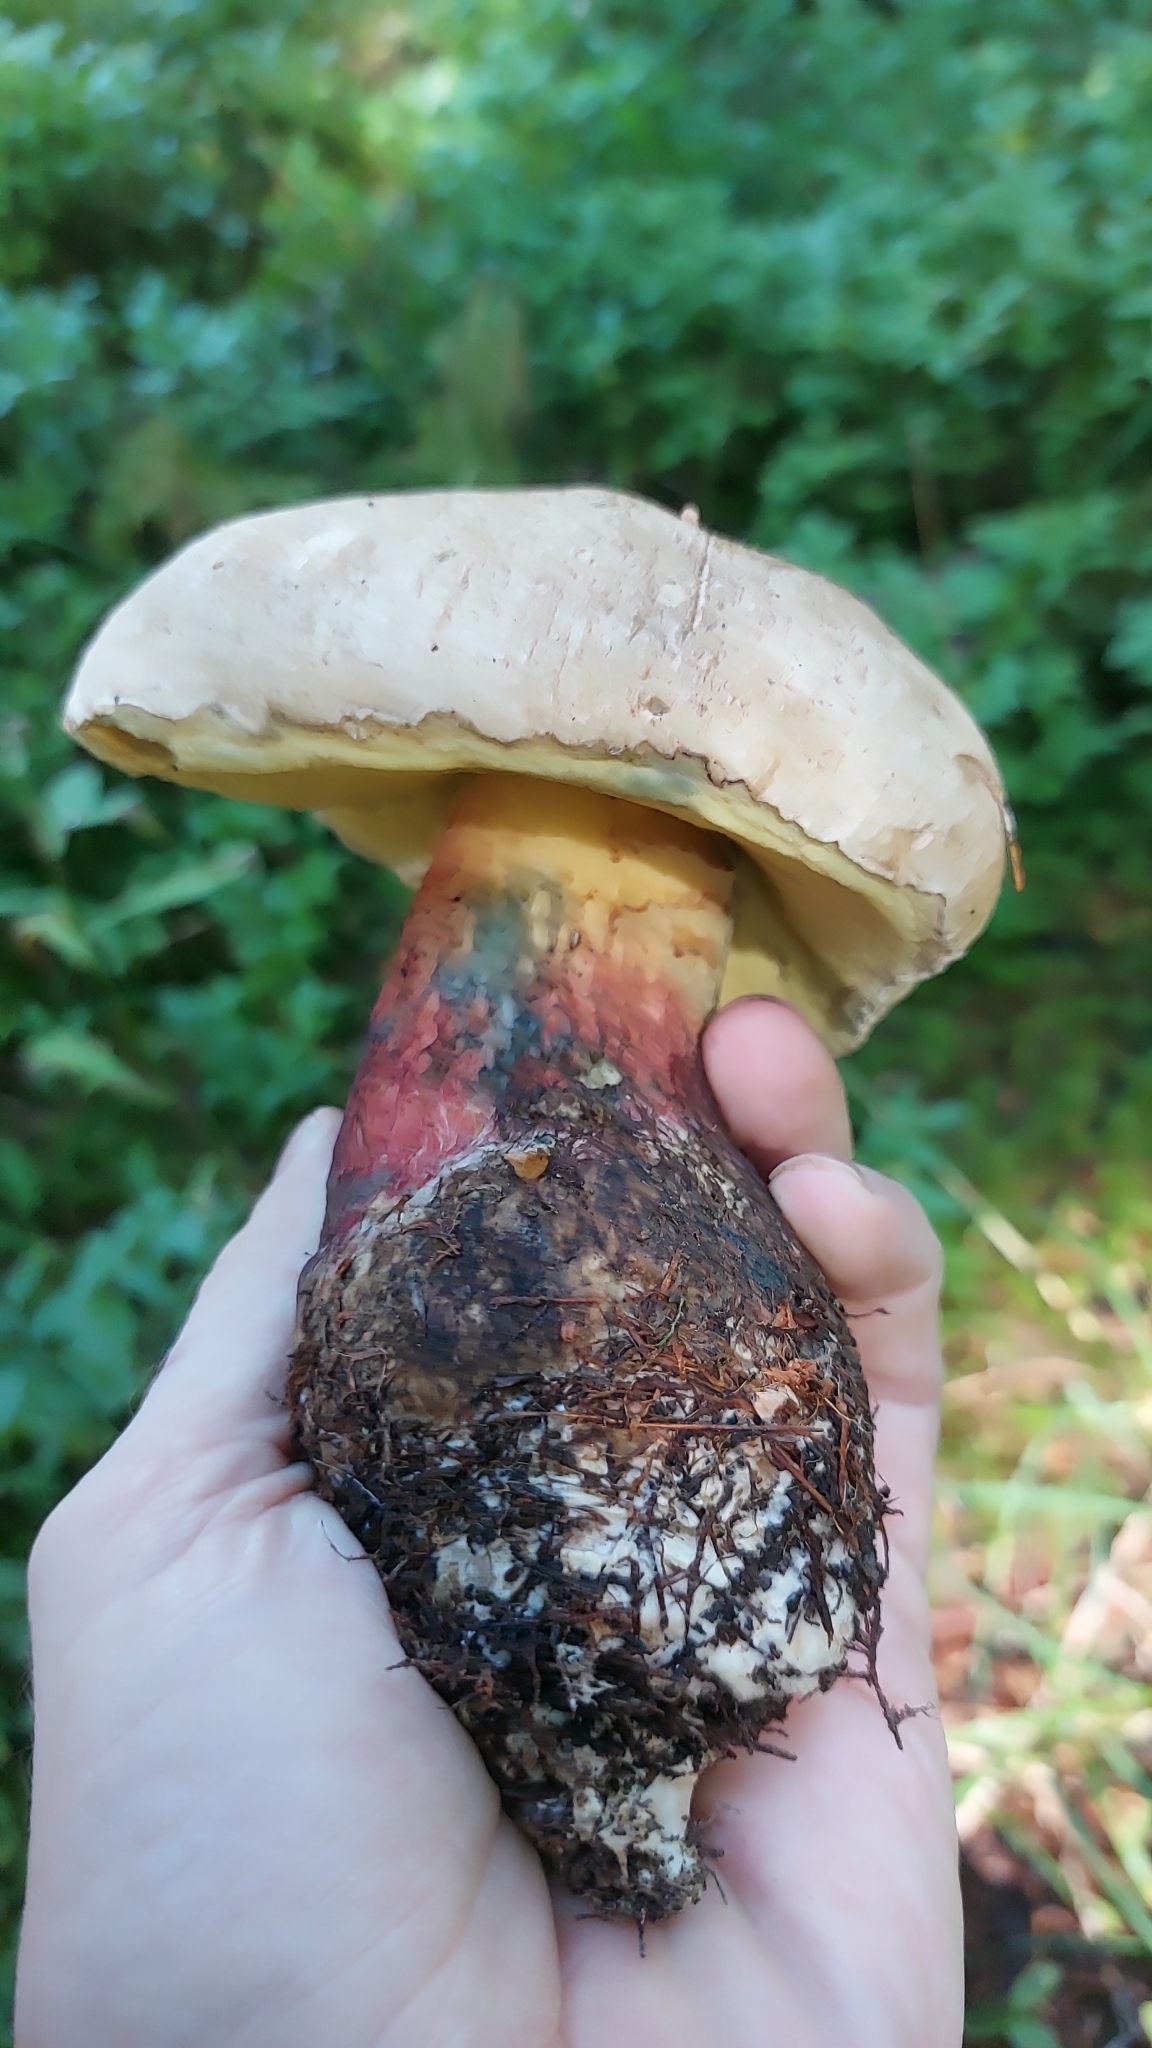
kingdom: Fungi
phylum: Basidiomycota
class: Agaricomycetes
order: Boletales
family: Boletaceae
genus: Caloboletus
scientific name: Caloboletus calopus
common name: Bitter beech bolete
